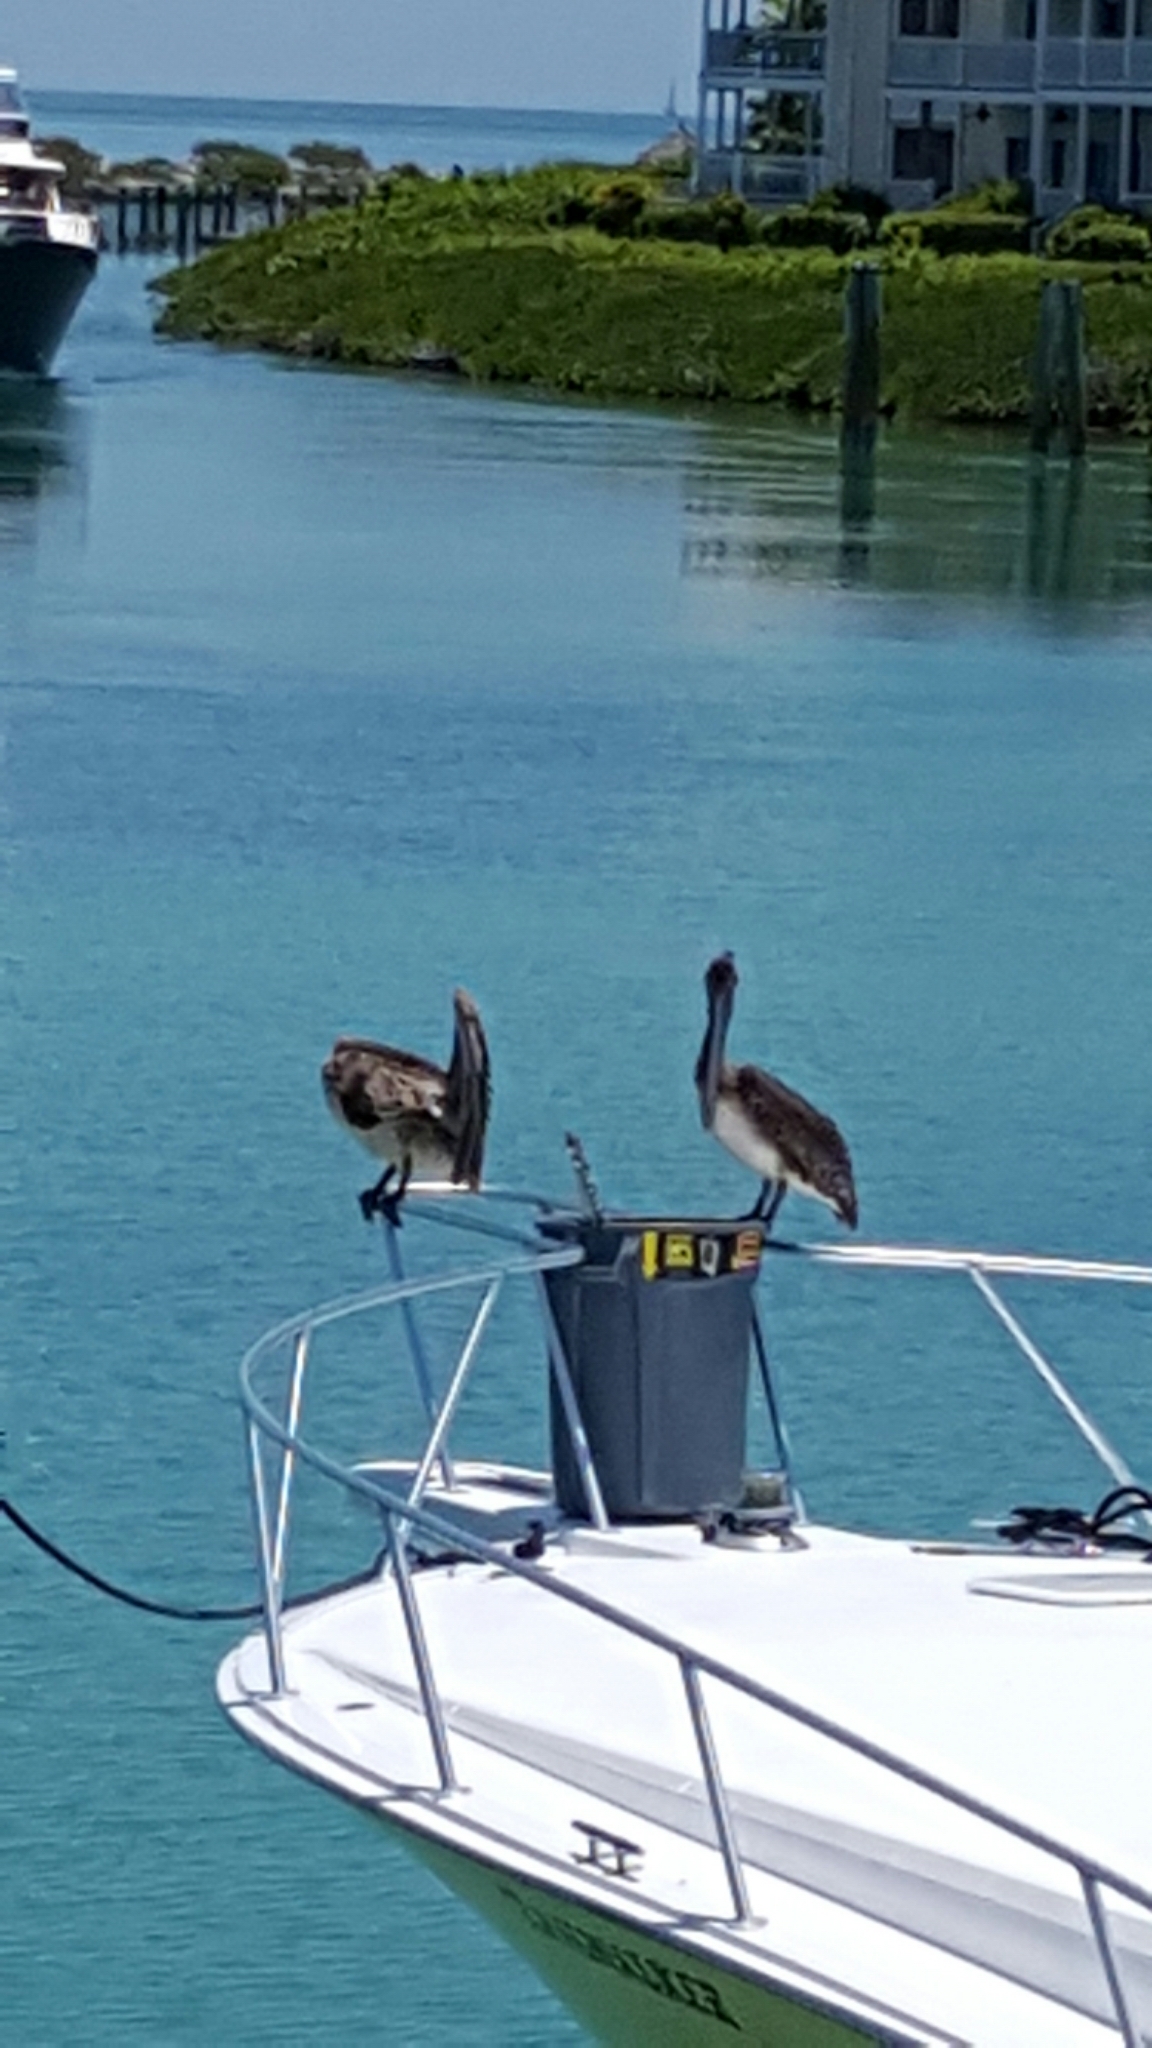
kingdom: Animalia
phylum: Chordata
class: Aves
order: Pelecaniformes
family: Pelecanidae
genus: Pelecanus
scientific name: Pelecanus occidentalis
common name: Brown pelican
